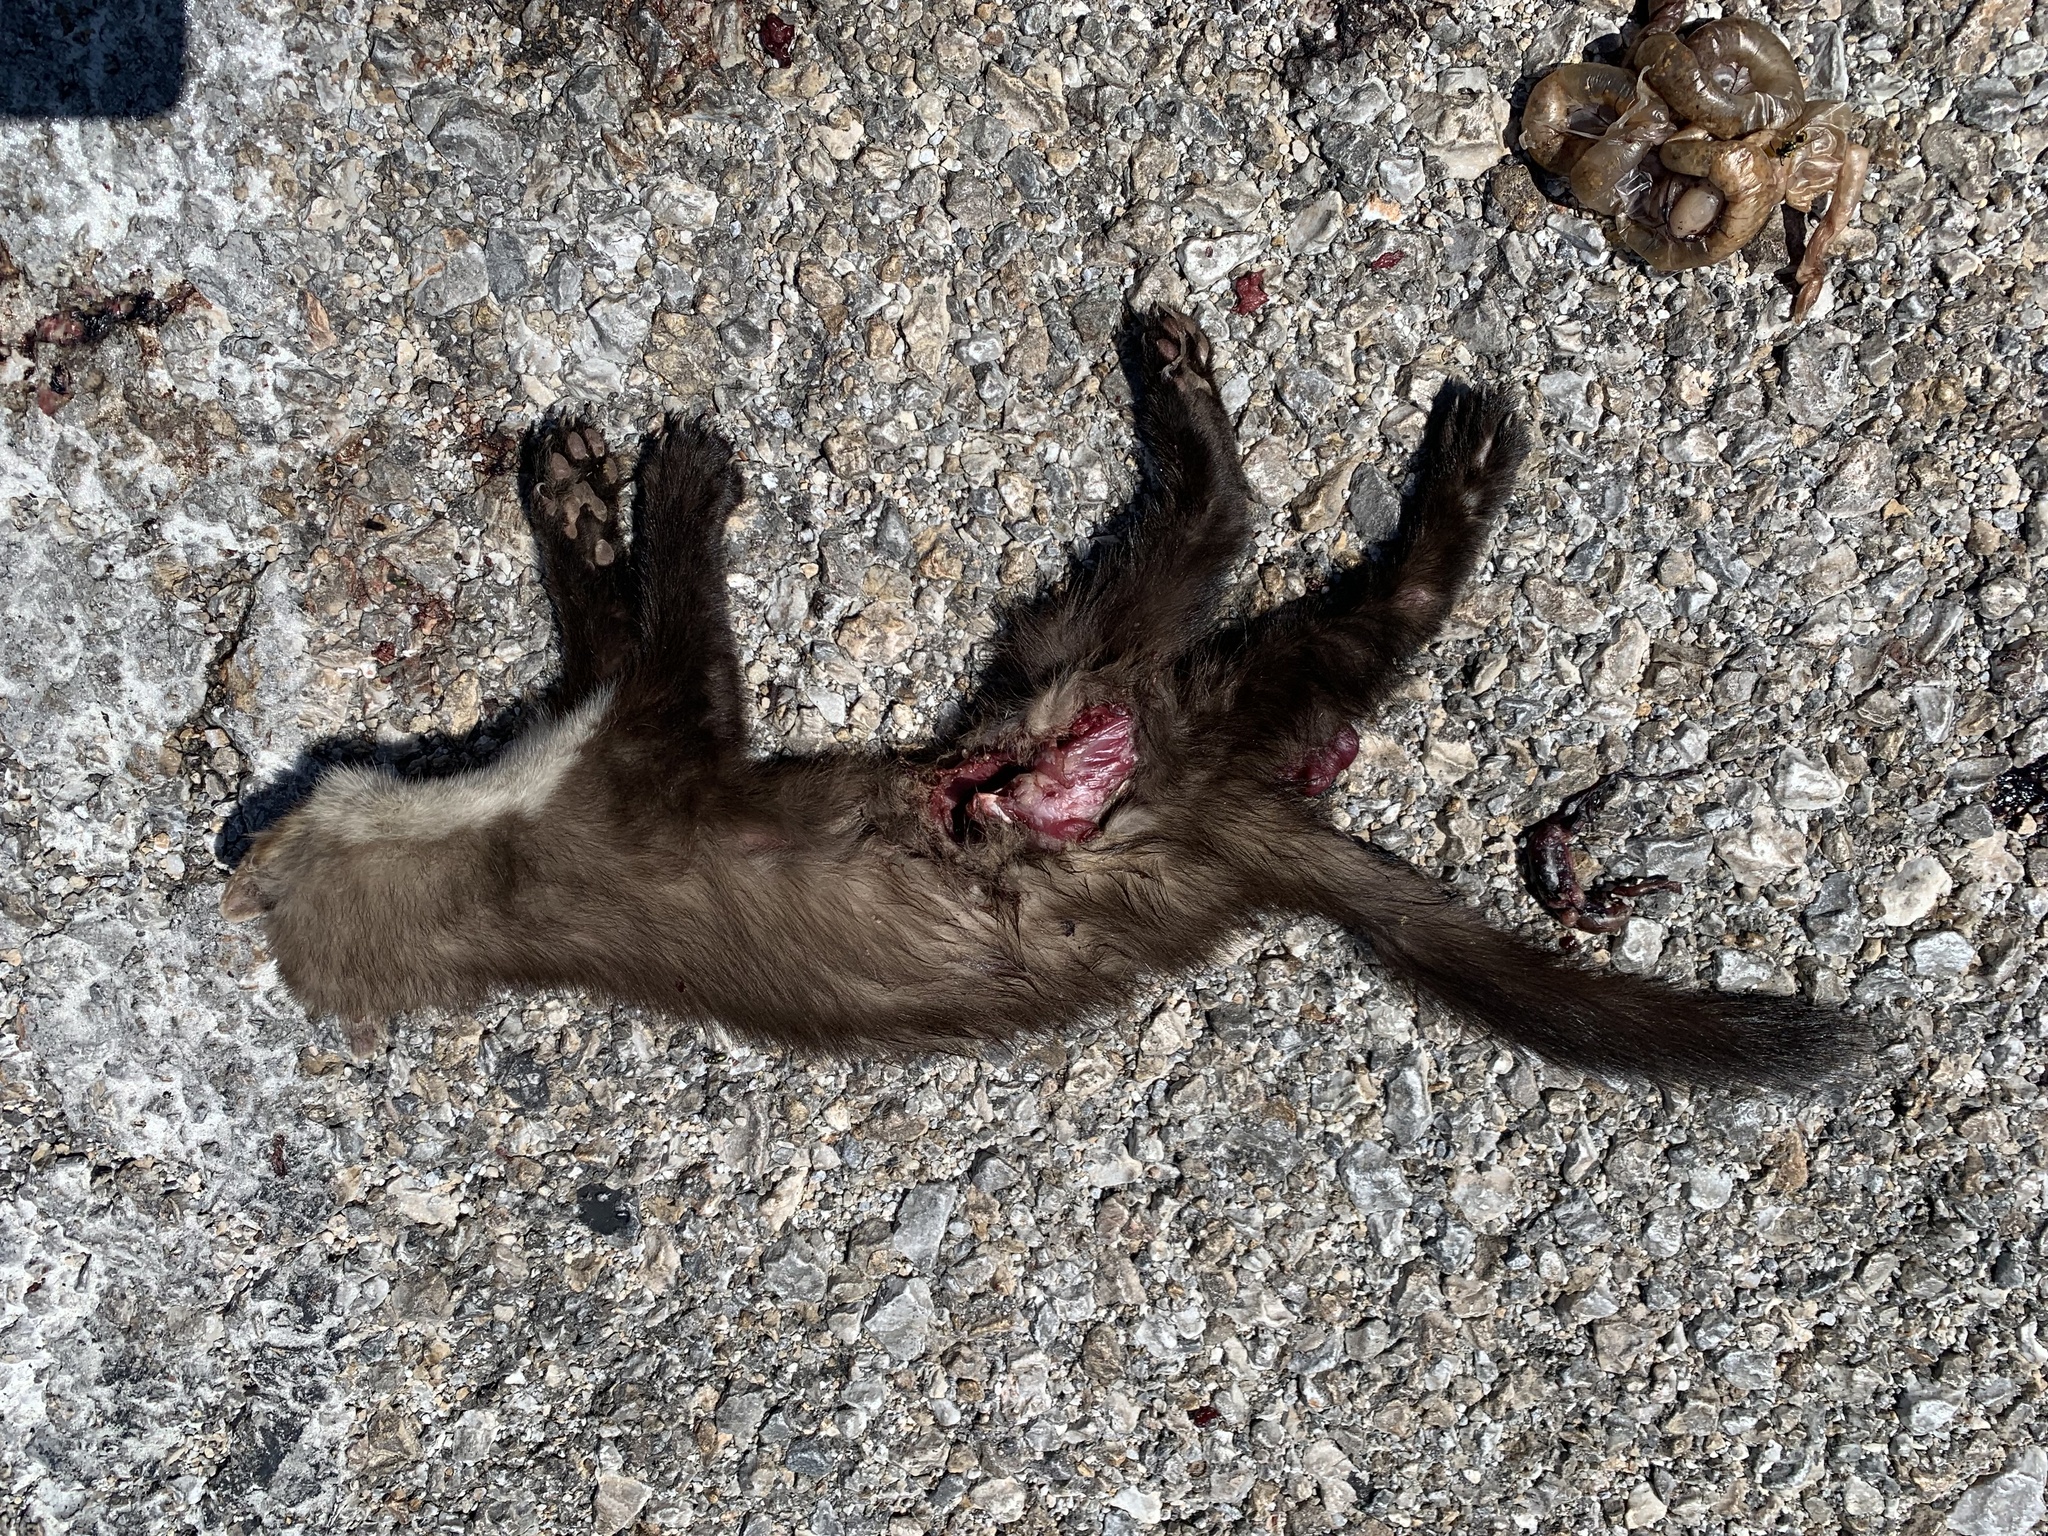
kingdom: Animalia
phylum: Chordata
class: Mammalia
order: Carnivora
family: Mustelidae
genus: Martes
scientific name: Martes foina
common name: Beech marten
